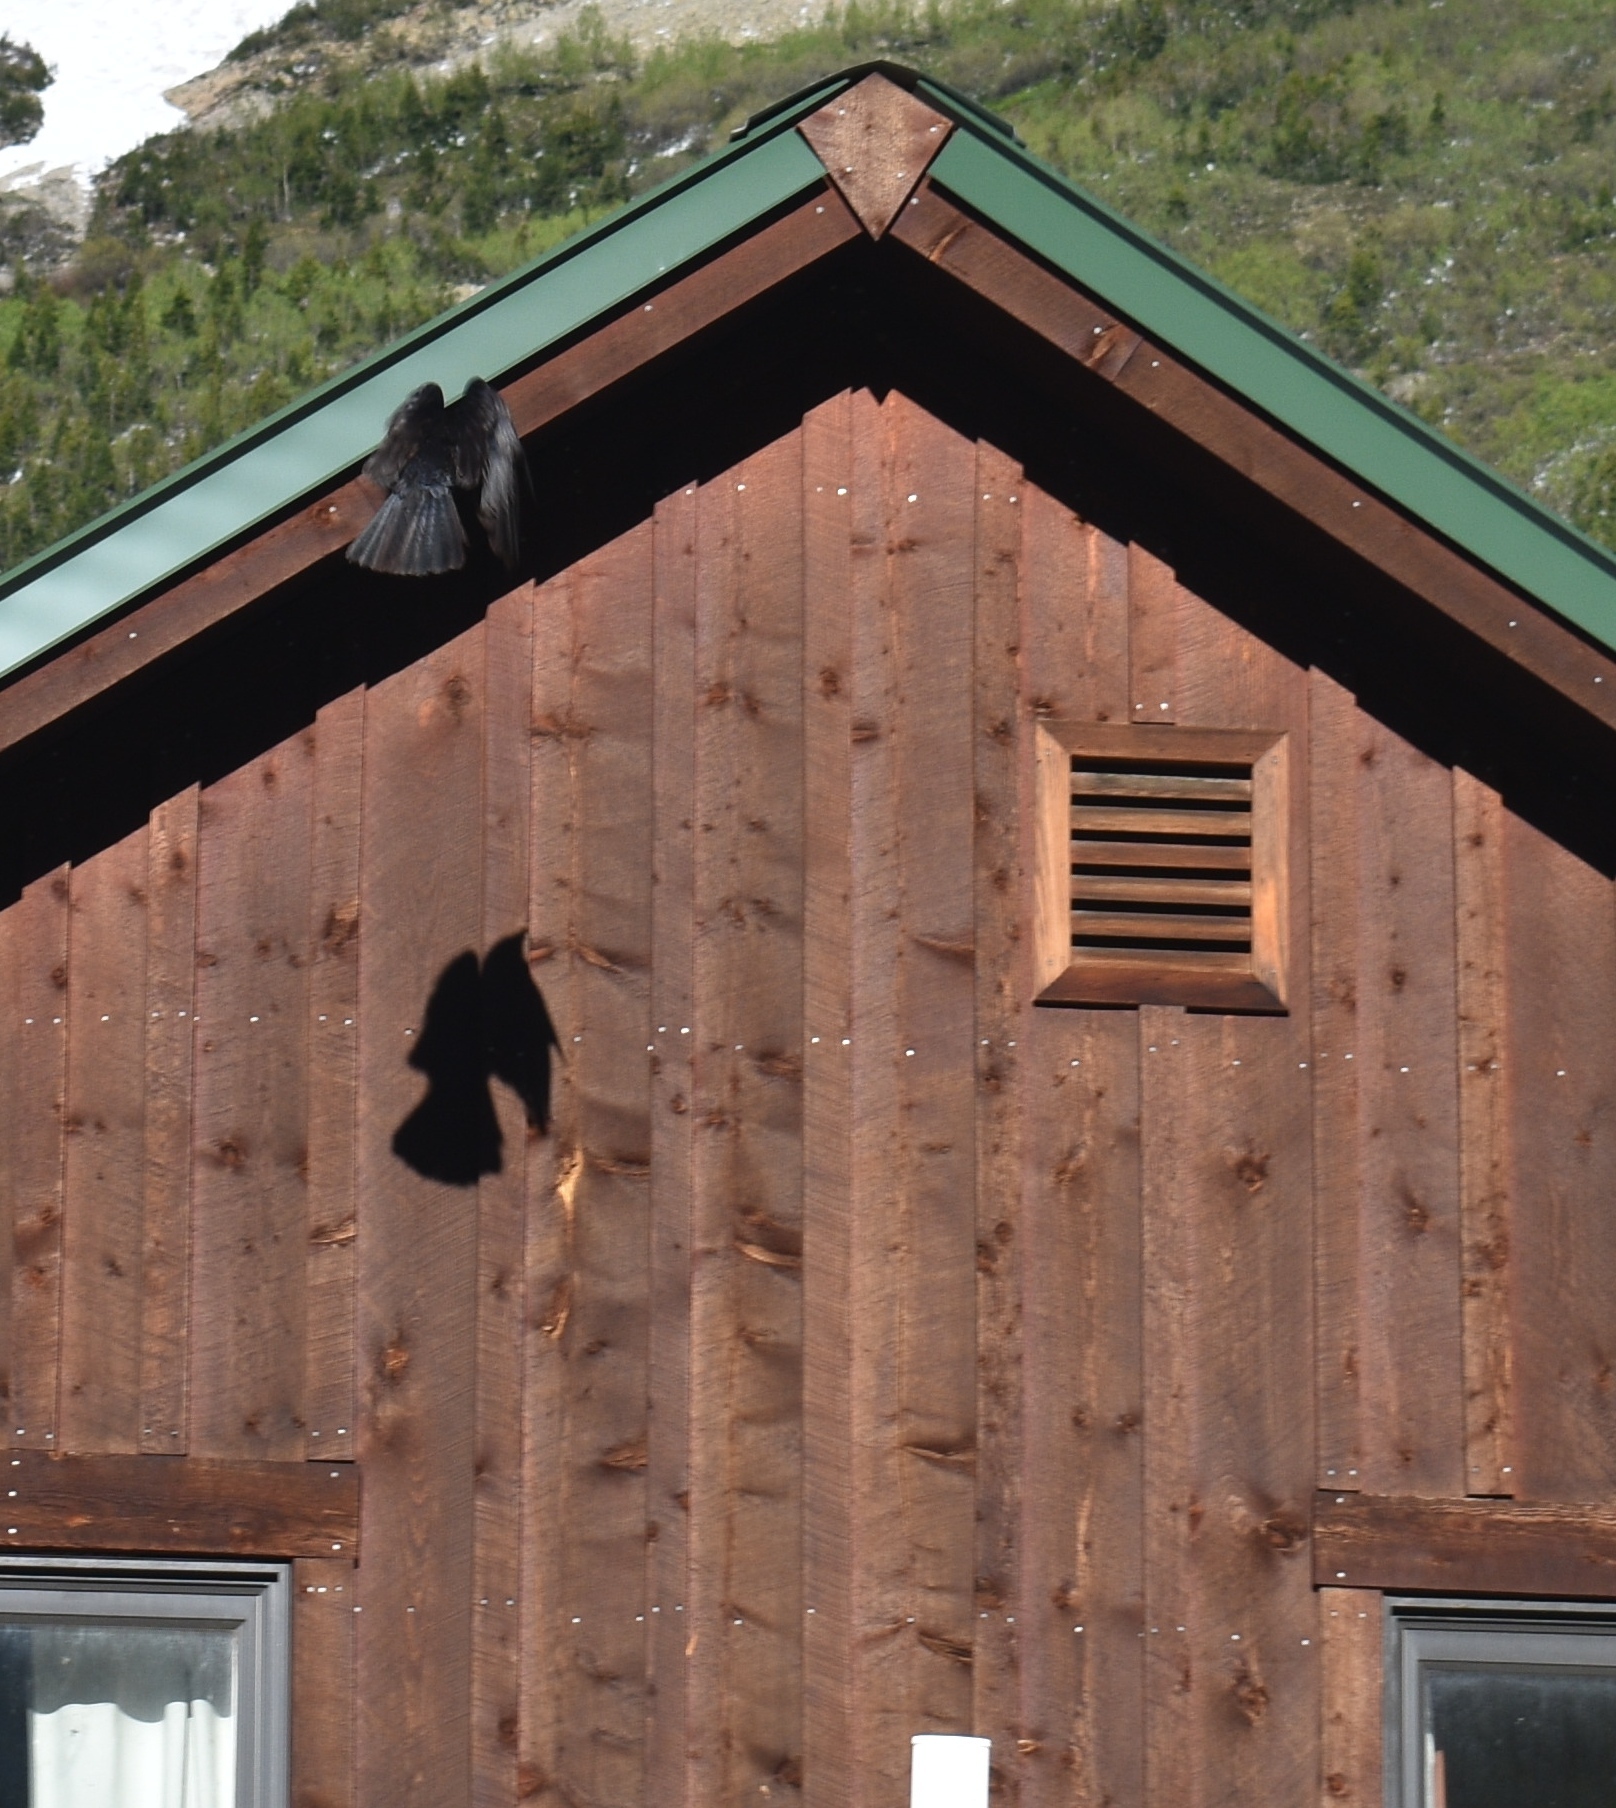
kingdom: Animalia
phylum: Chordata
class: Aves
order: Passeriformes
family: Corvidae
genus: Corvus
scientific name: Corvus brachyrhynchos
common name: American crow
